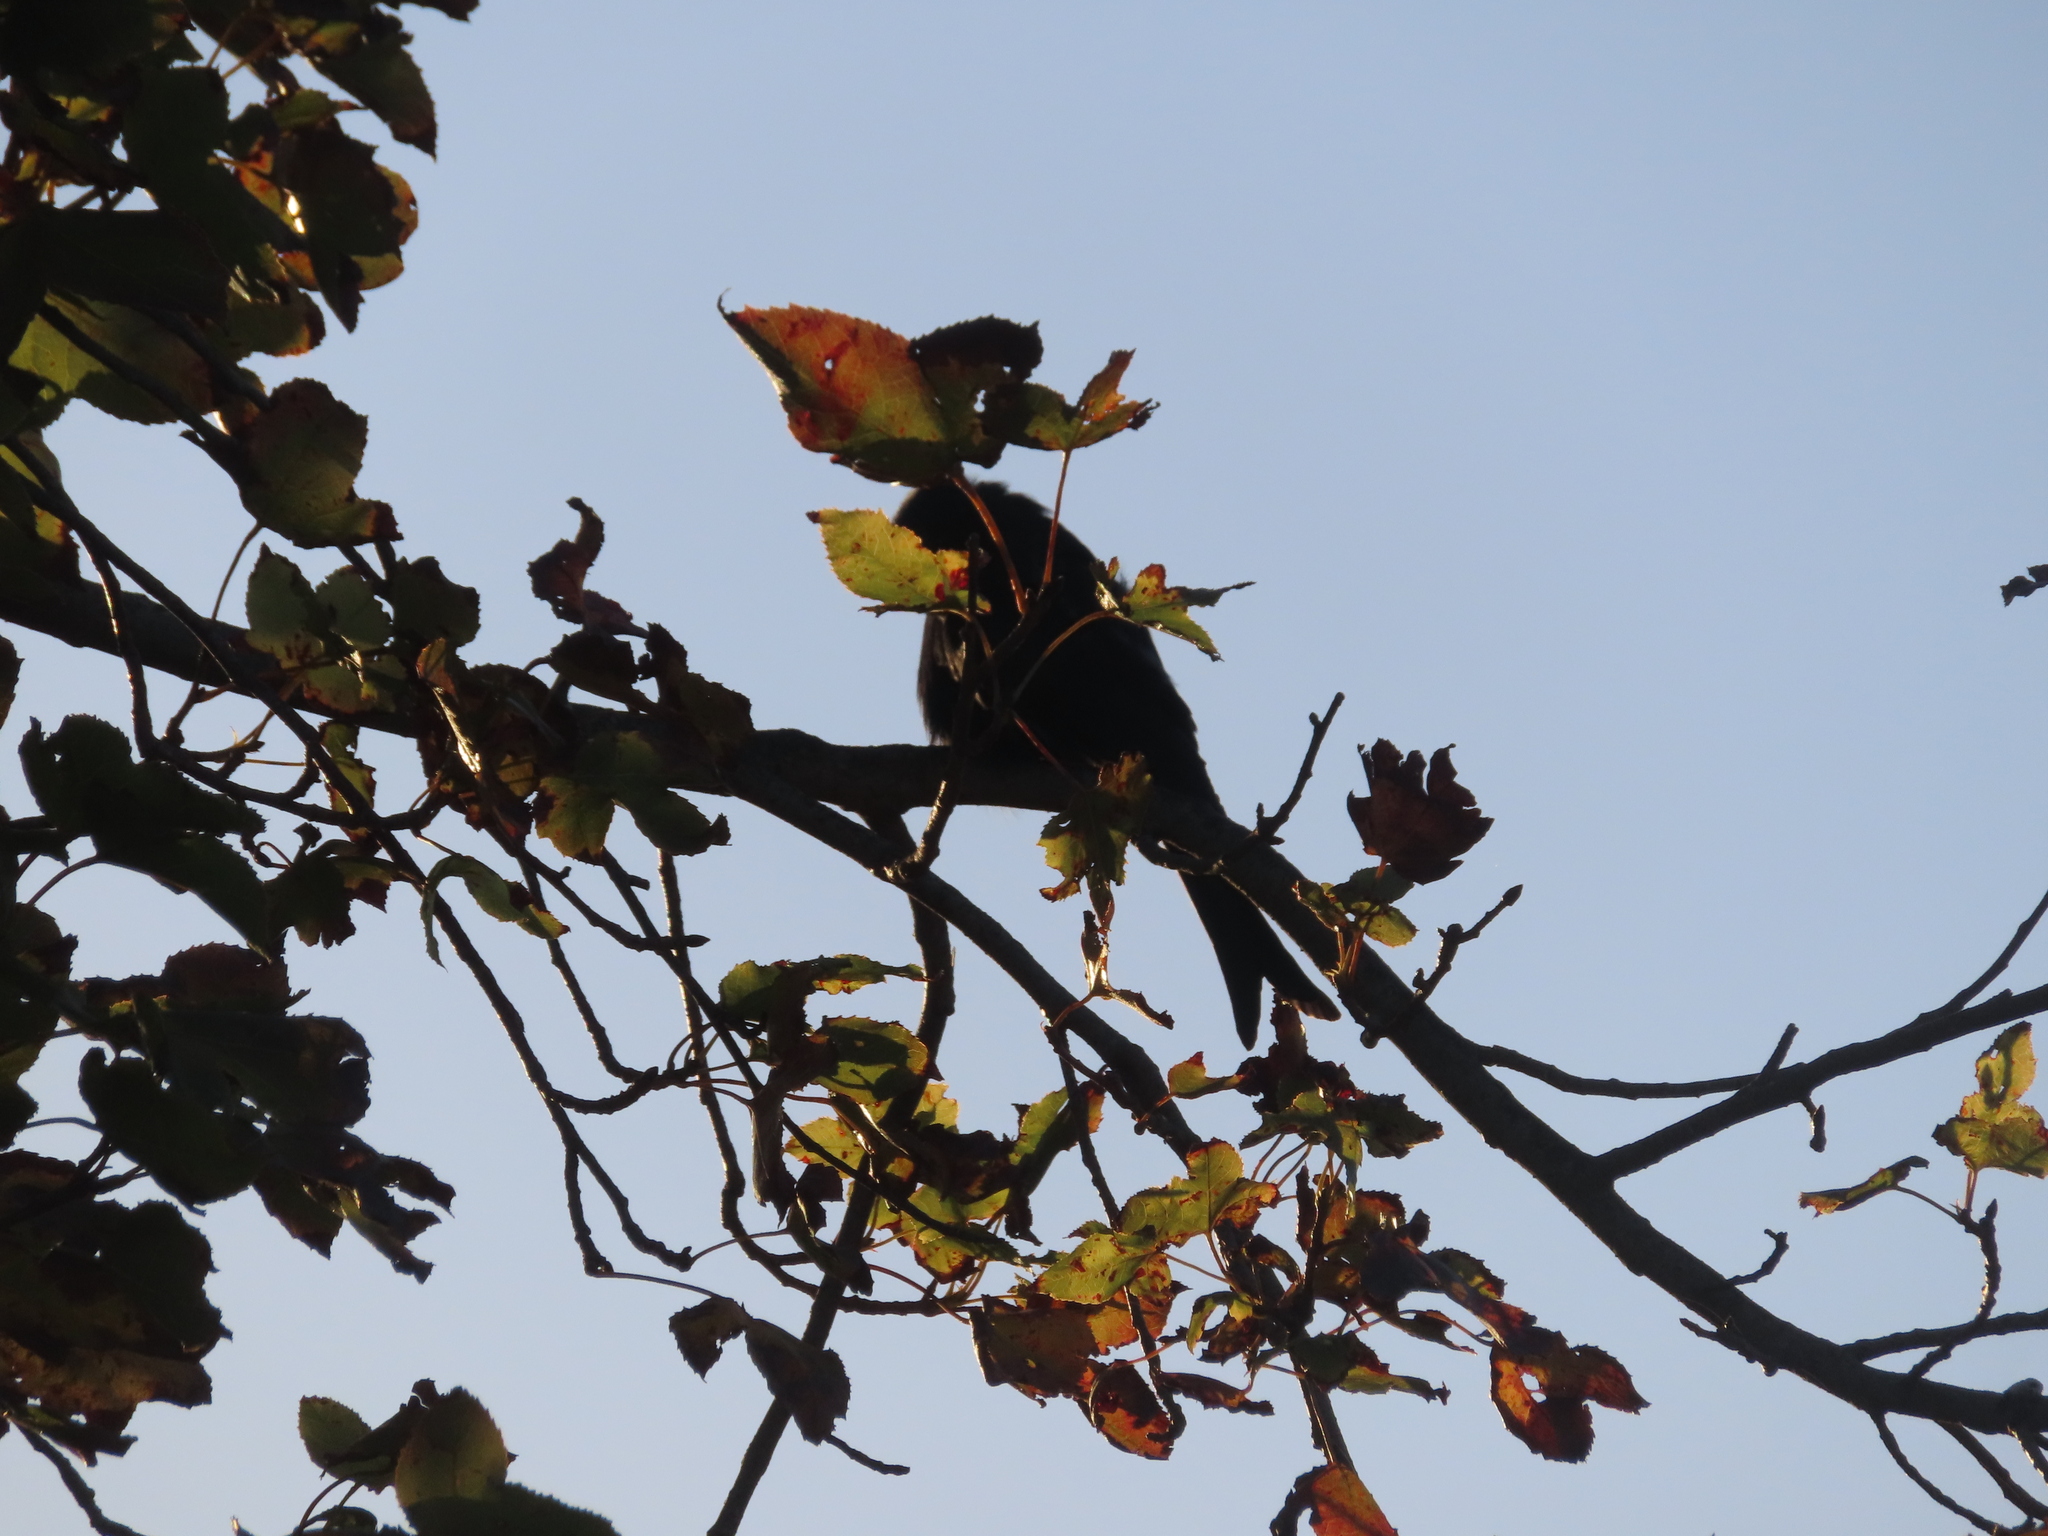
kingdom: Animalia
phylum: Chordata
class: Aves
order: Passeriformes
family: Dicruridae
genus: Dicrurus
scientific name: Dicrurus adsimilis
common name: Fork-tailed drongo
